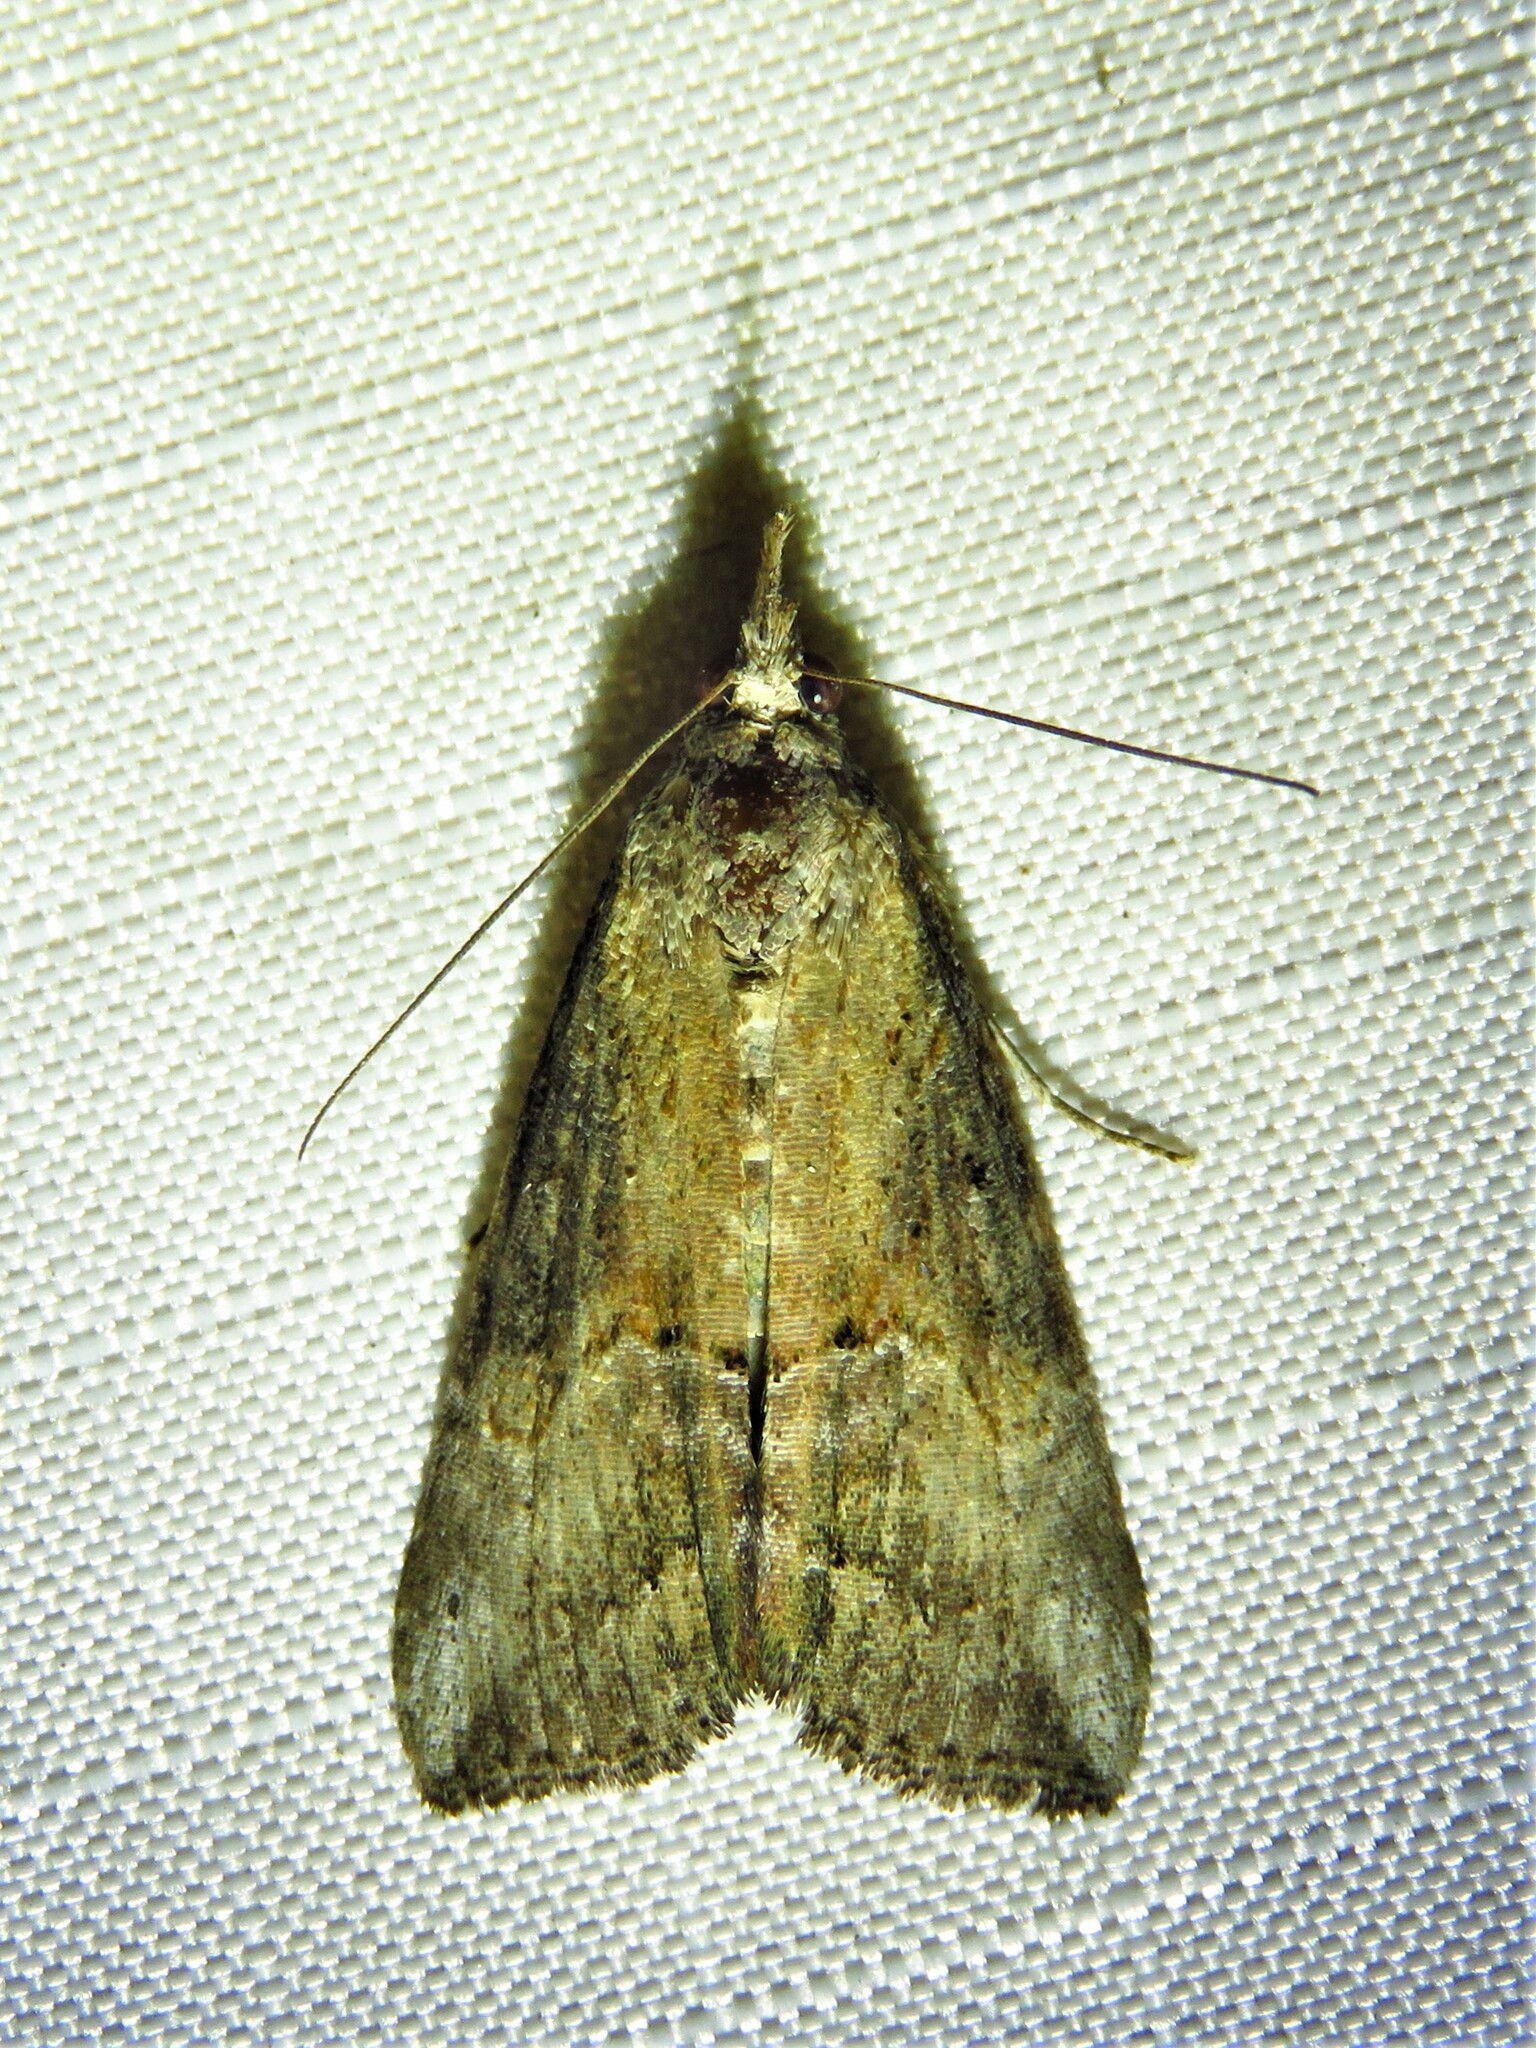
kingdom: Animalia
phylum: Arthropoda
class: Insecta
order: Lepidoptera
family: Erebidae
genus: Hypena
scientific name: Hypena scabra
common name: Green cloverworm
